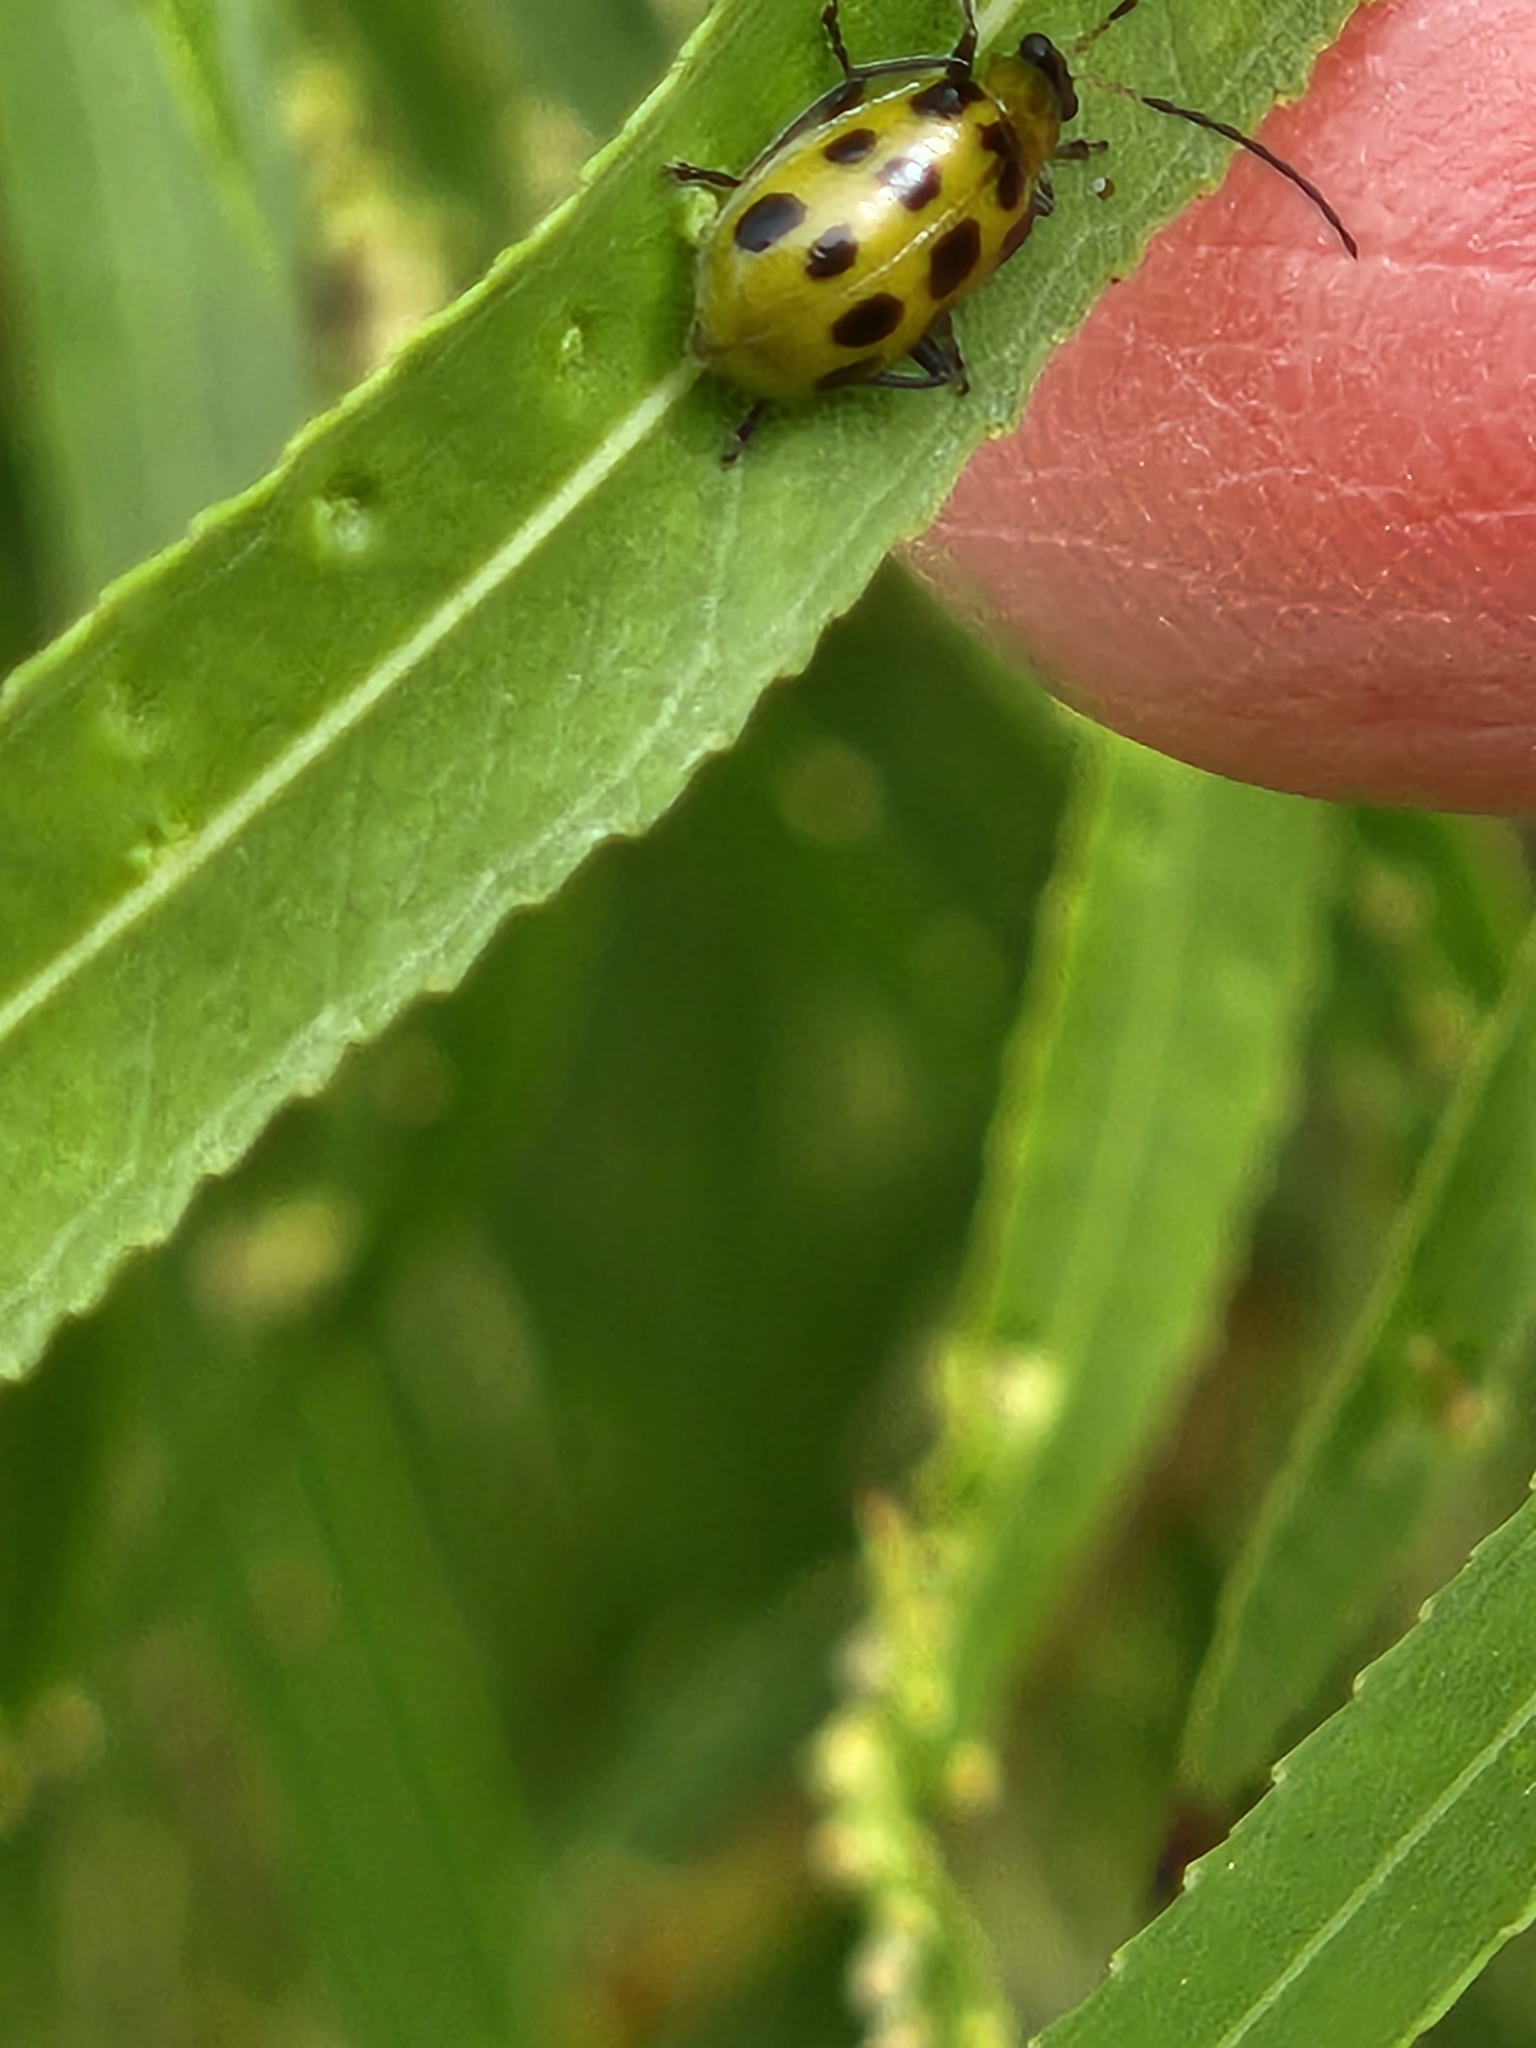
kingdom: Animalia
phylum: Arthropoda
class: Insecta
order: Coleoptera
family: Chrysomelidae
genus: Diabrotica
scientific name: Diabrotica undecimpunctata
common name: Spotted cucumber beetle
